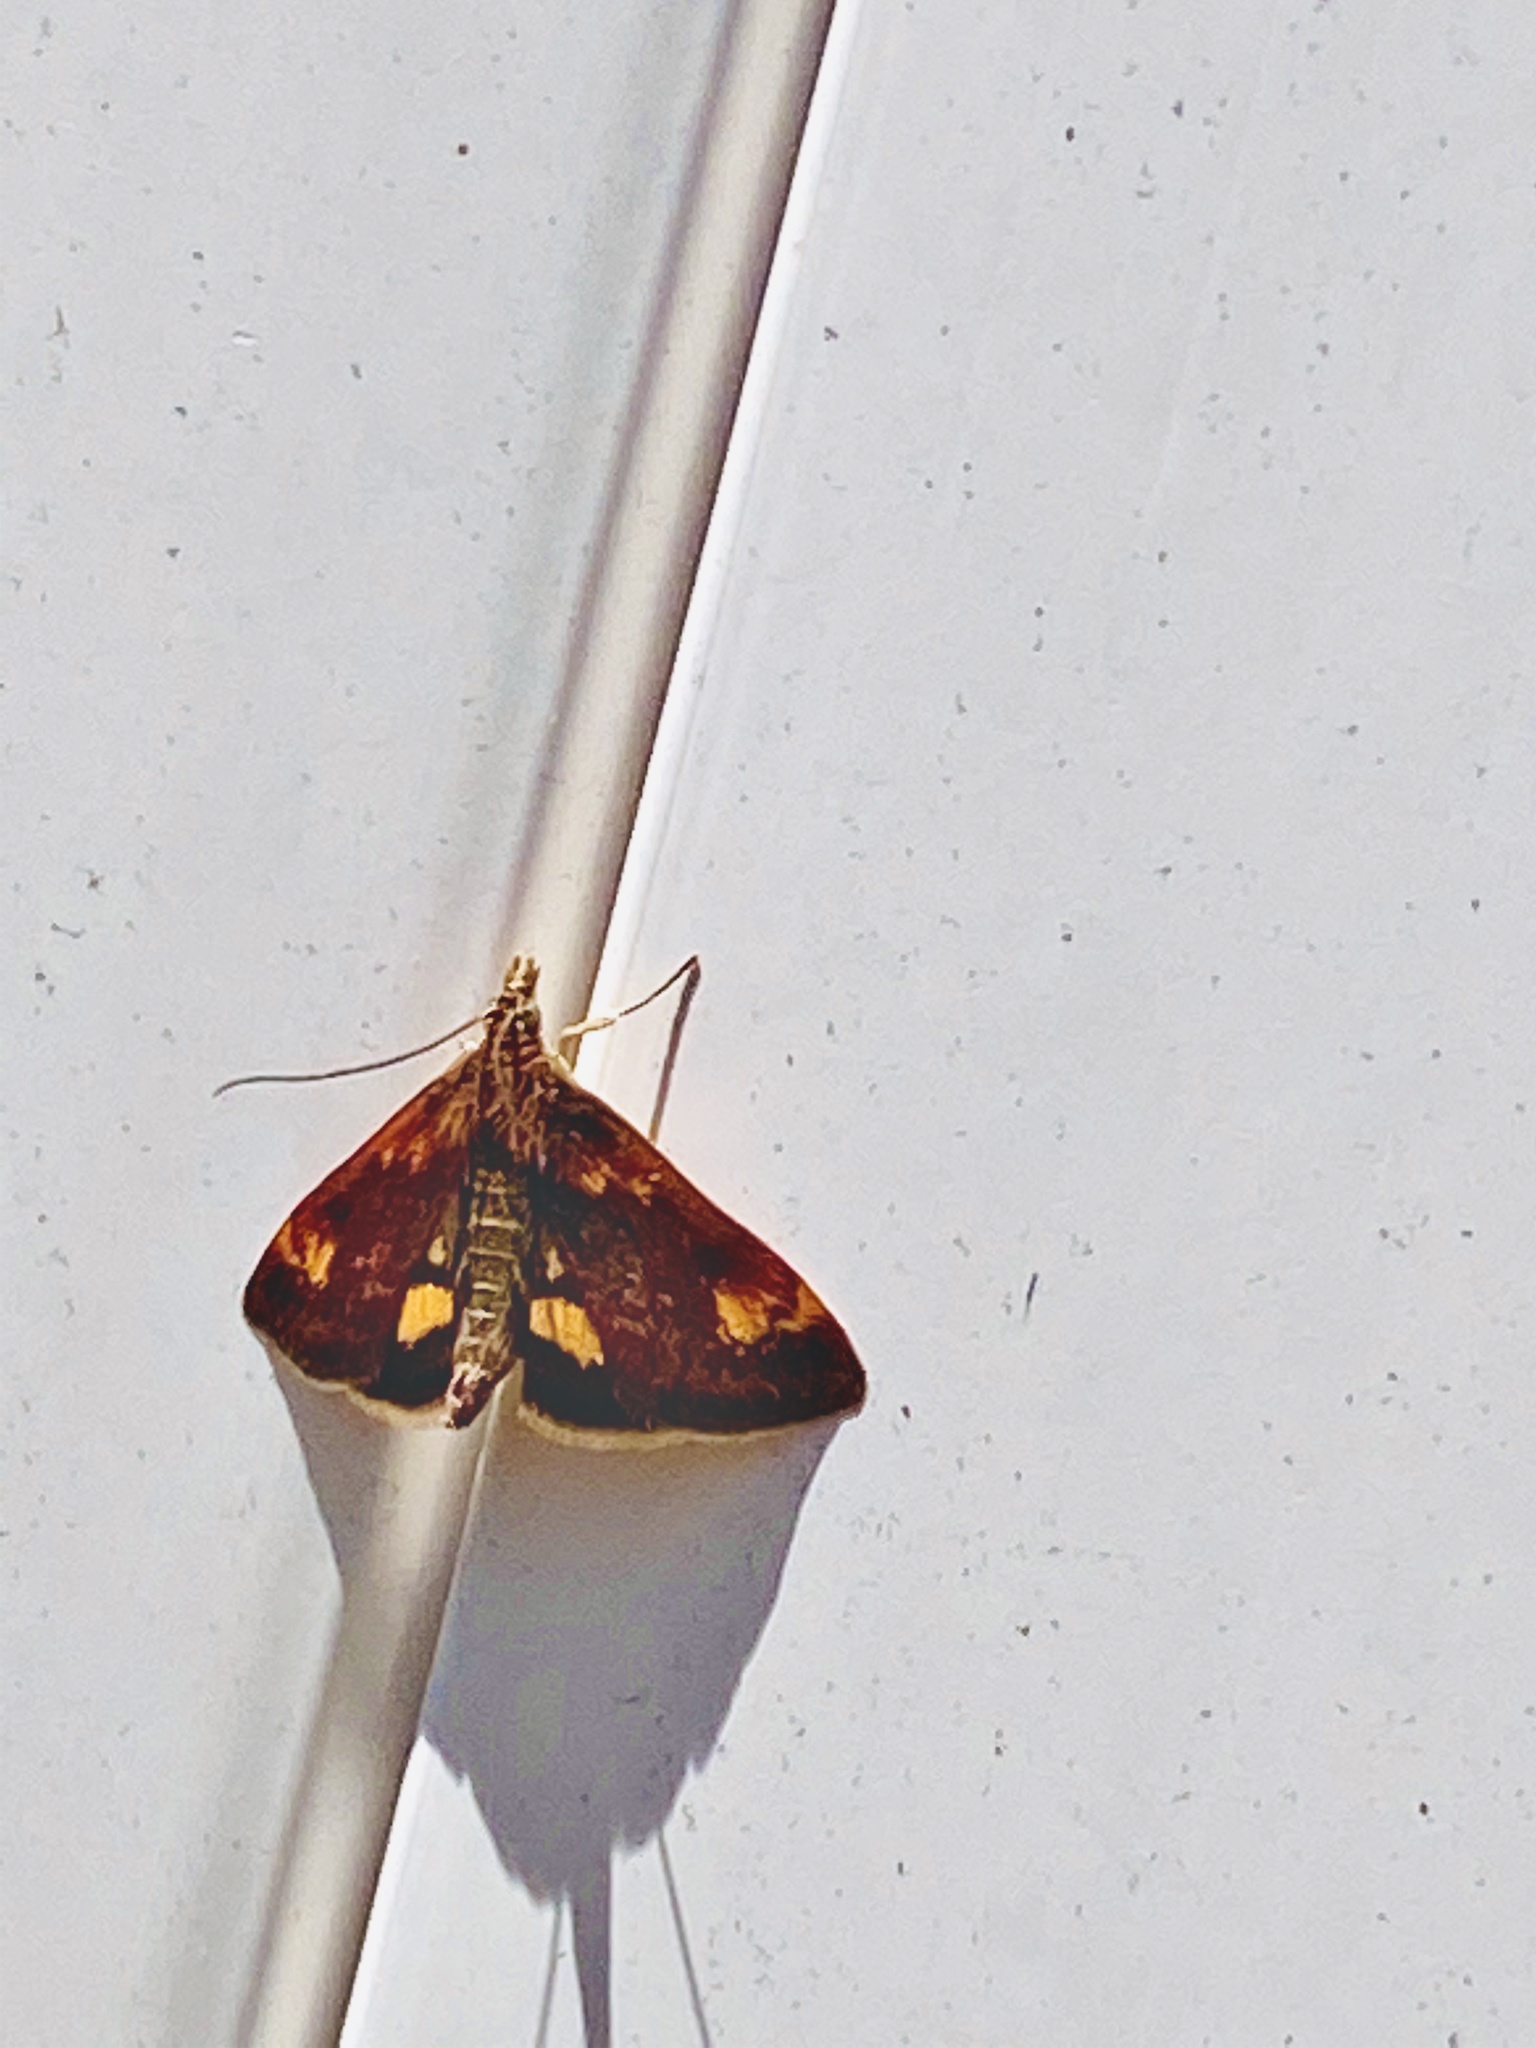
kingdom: Animalia
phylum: Arthropoda
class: Insecta
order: Lepidoptera
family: Crambidae
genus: Pyrausta
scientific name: Pyrausta orphisalis
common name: Orange mint moth
